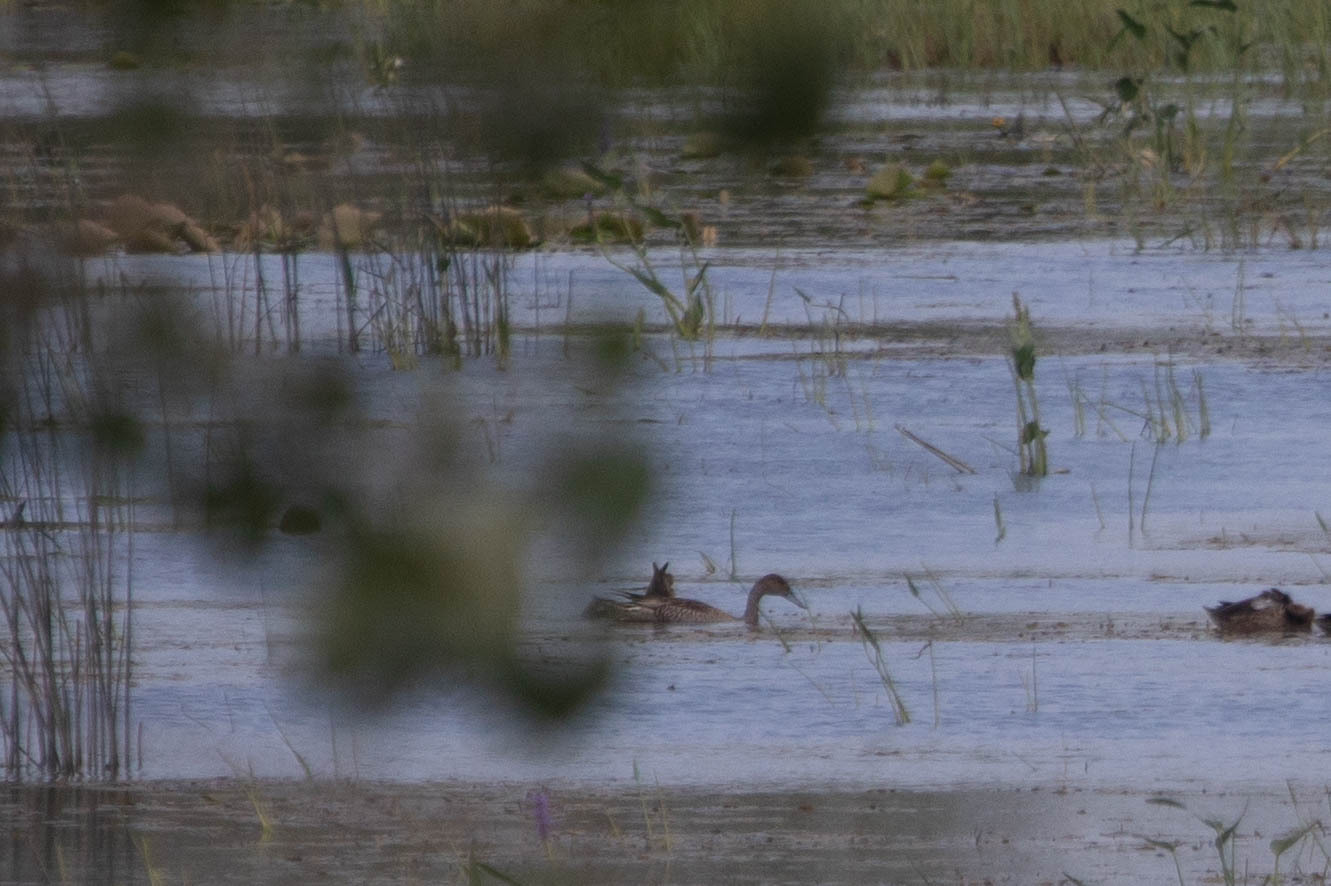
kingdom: Animalia
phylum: Chordata
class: Aves
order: Anseriformes
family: Anatidae
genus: Anas
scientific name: Anas acuta
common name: Northern pintail
